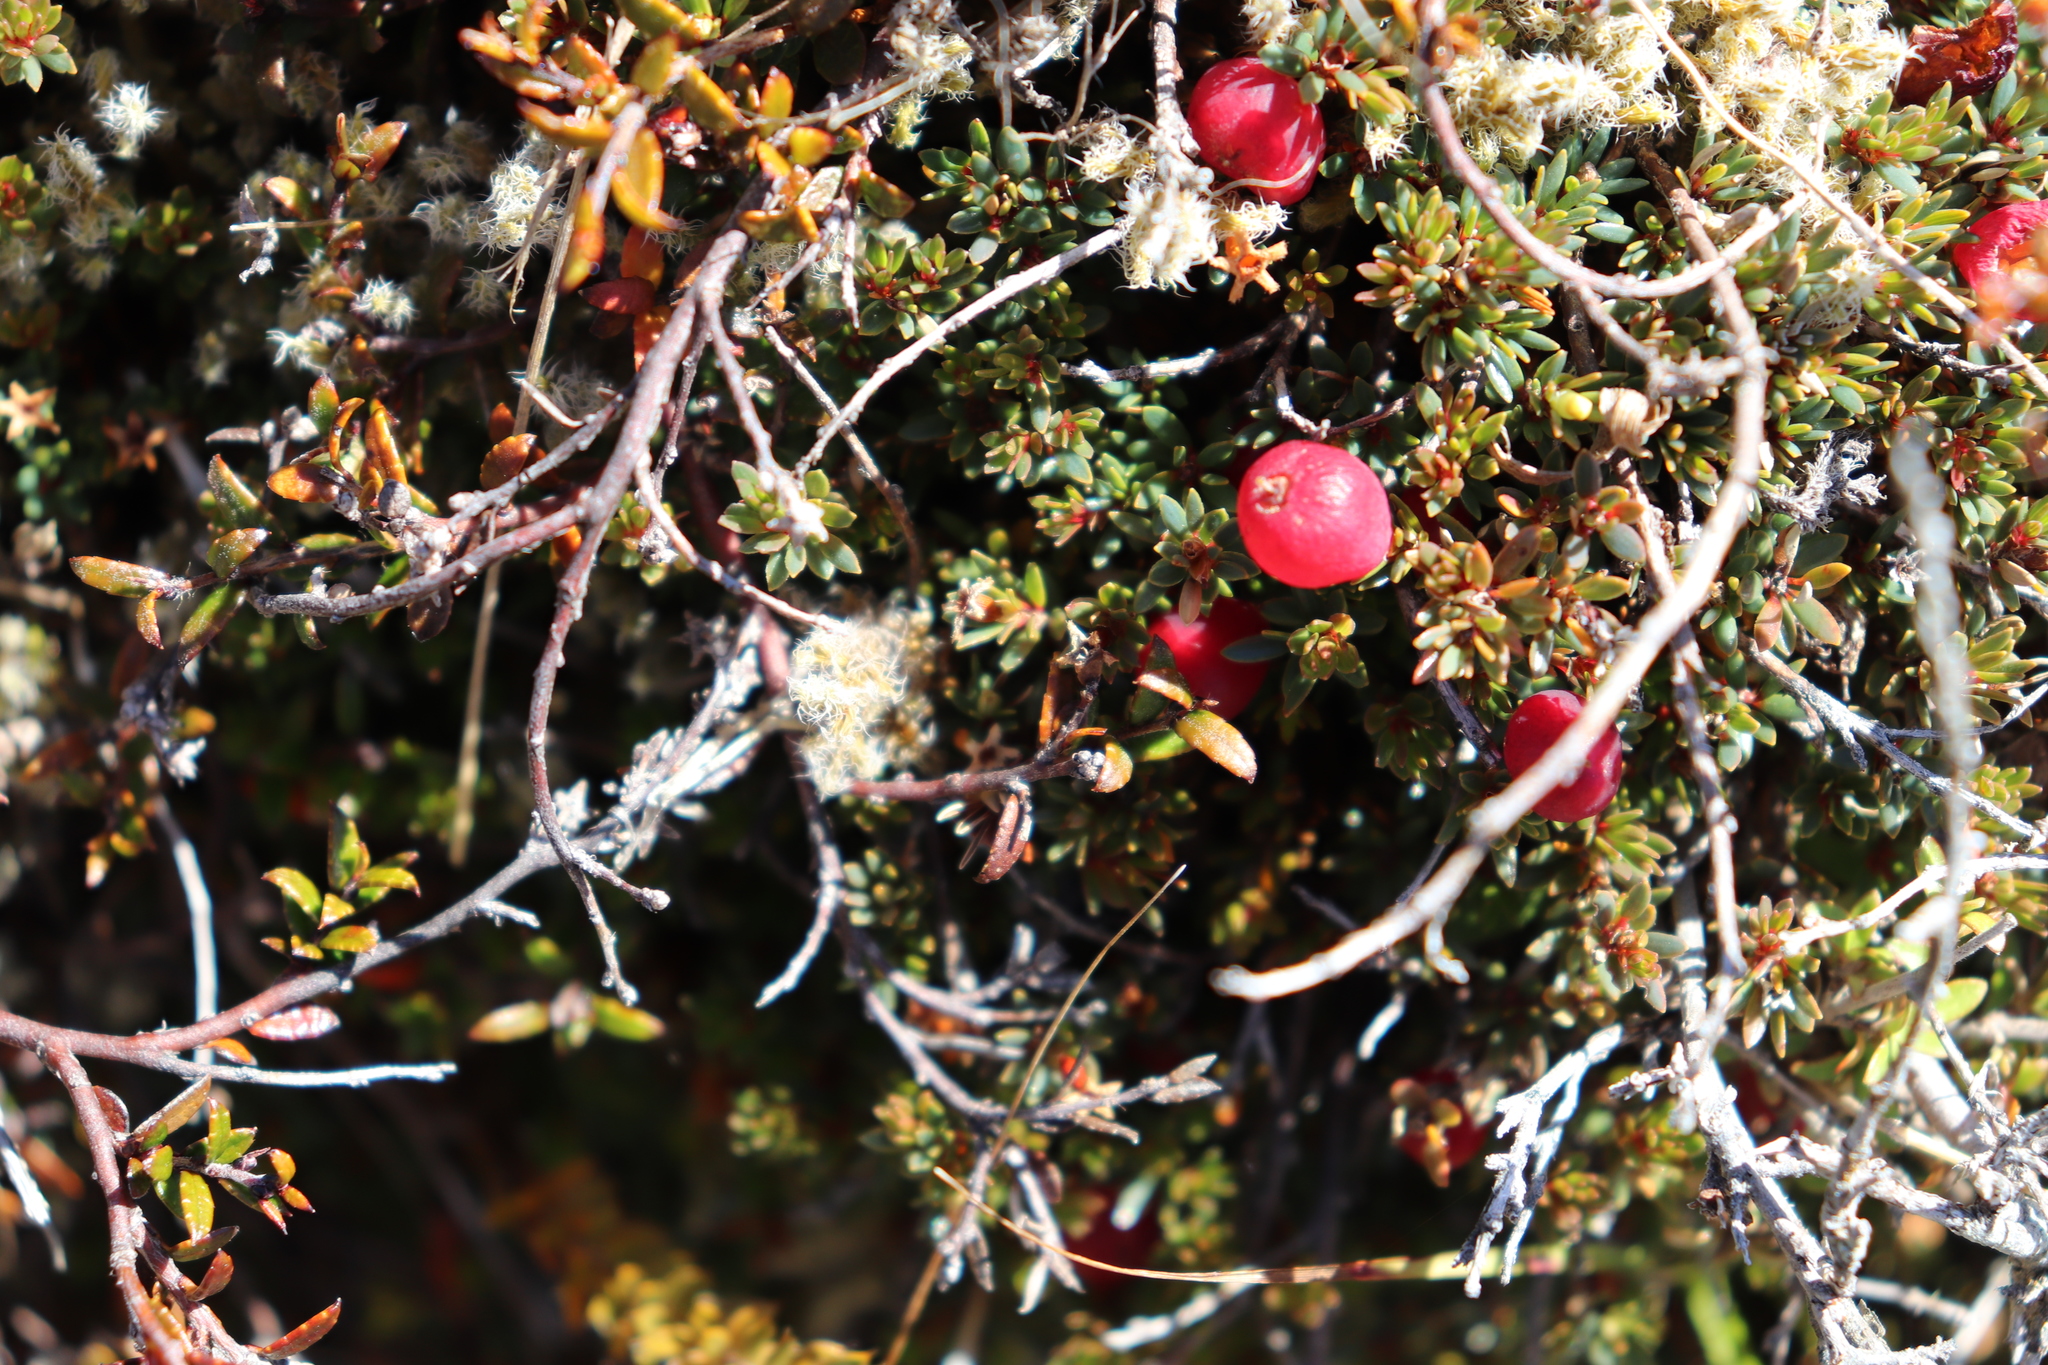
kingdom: Plantae
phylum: Tracheophyta
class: Magnoliopsida
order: Ericales
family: Ericaceae
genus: Pentachondra
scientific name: Pentachondra pumila
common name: Carpet-heath
